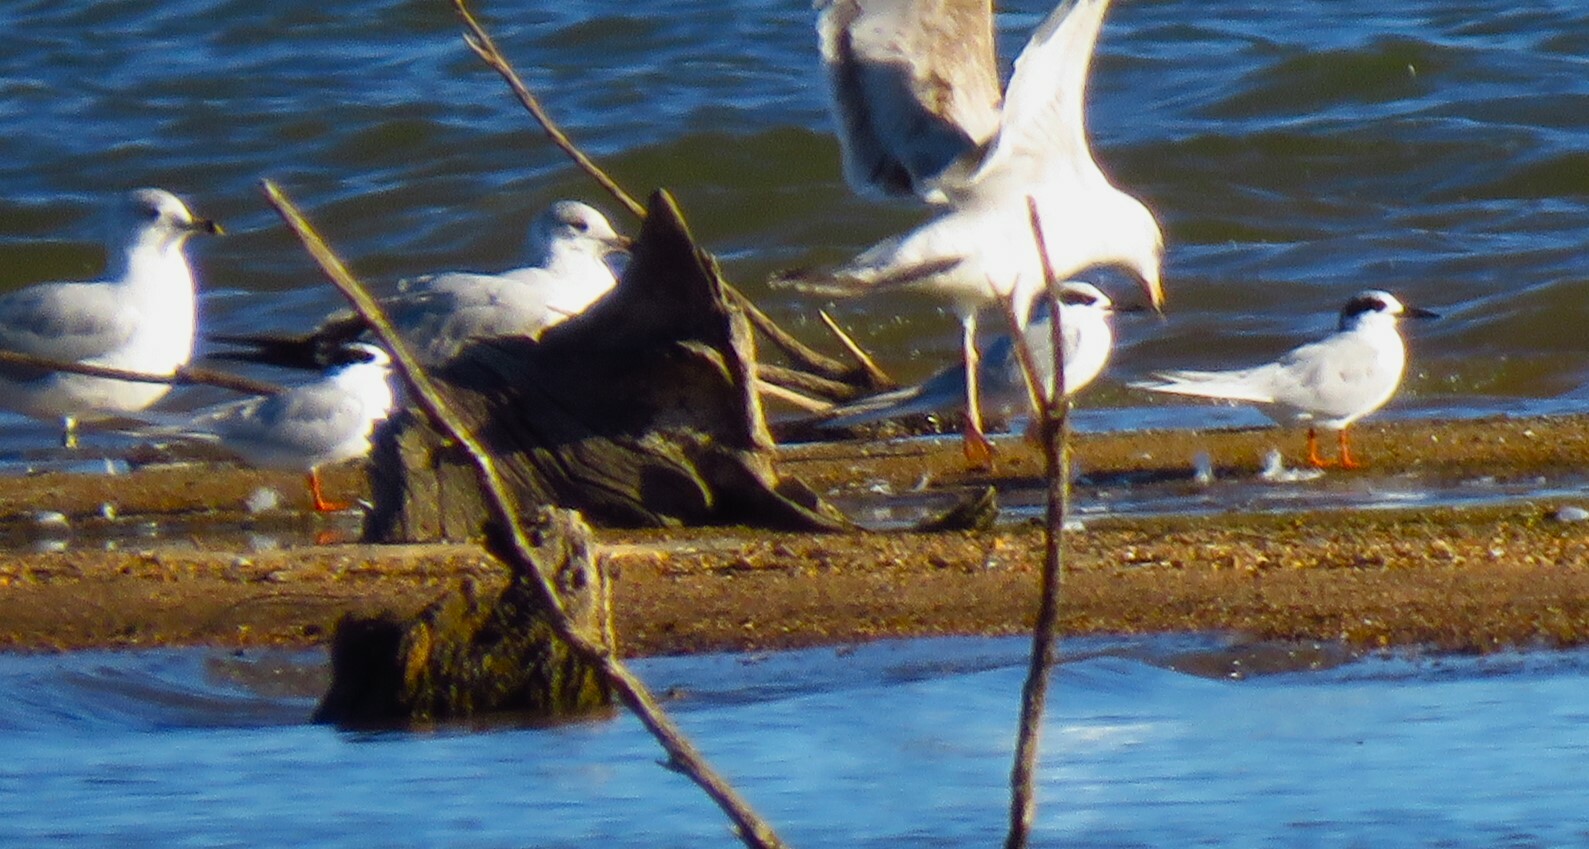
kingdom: Animalia
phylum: Chordata
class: Aves
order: Charadriiformes
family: Laridae
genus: Sterna
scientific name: Sterna forsteri
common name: Forster's tern
